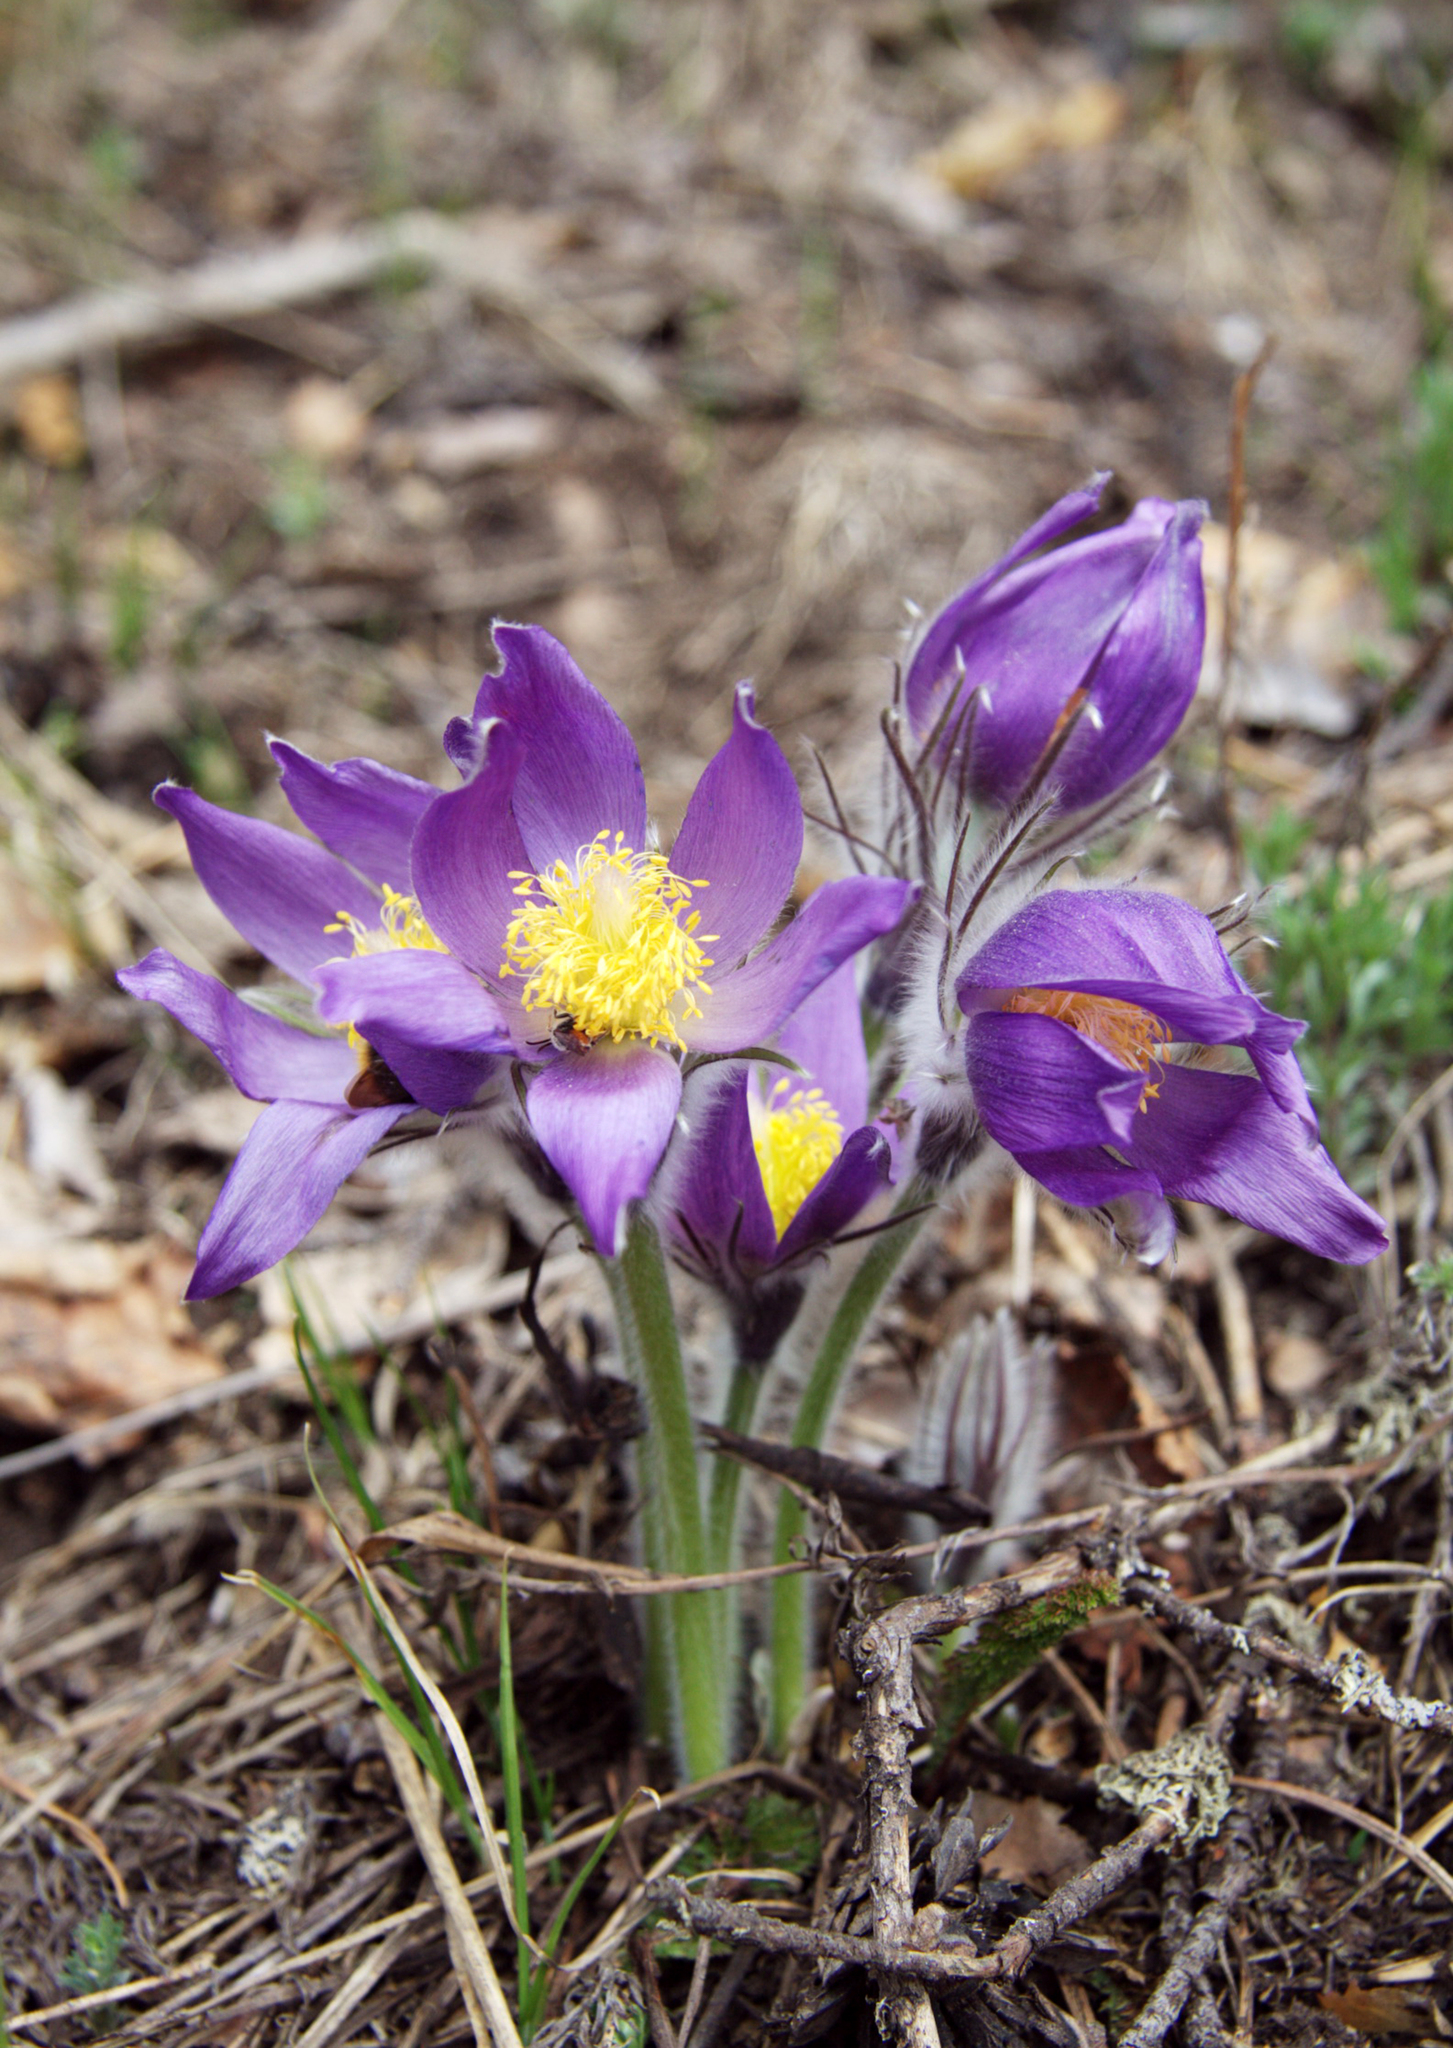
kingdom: Plantae
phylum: Tracheophyta
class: Magnoliopsida
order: Ranunculales
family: Ranunculaceae
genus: Pulsatilla
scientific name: Pulsatilla patens
